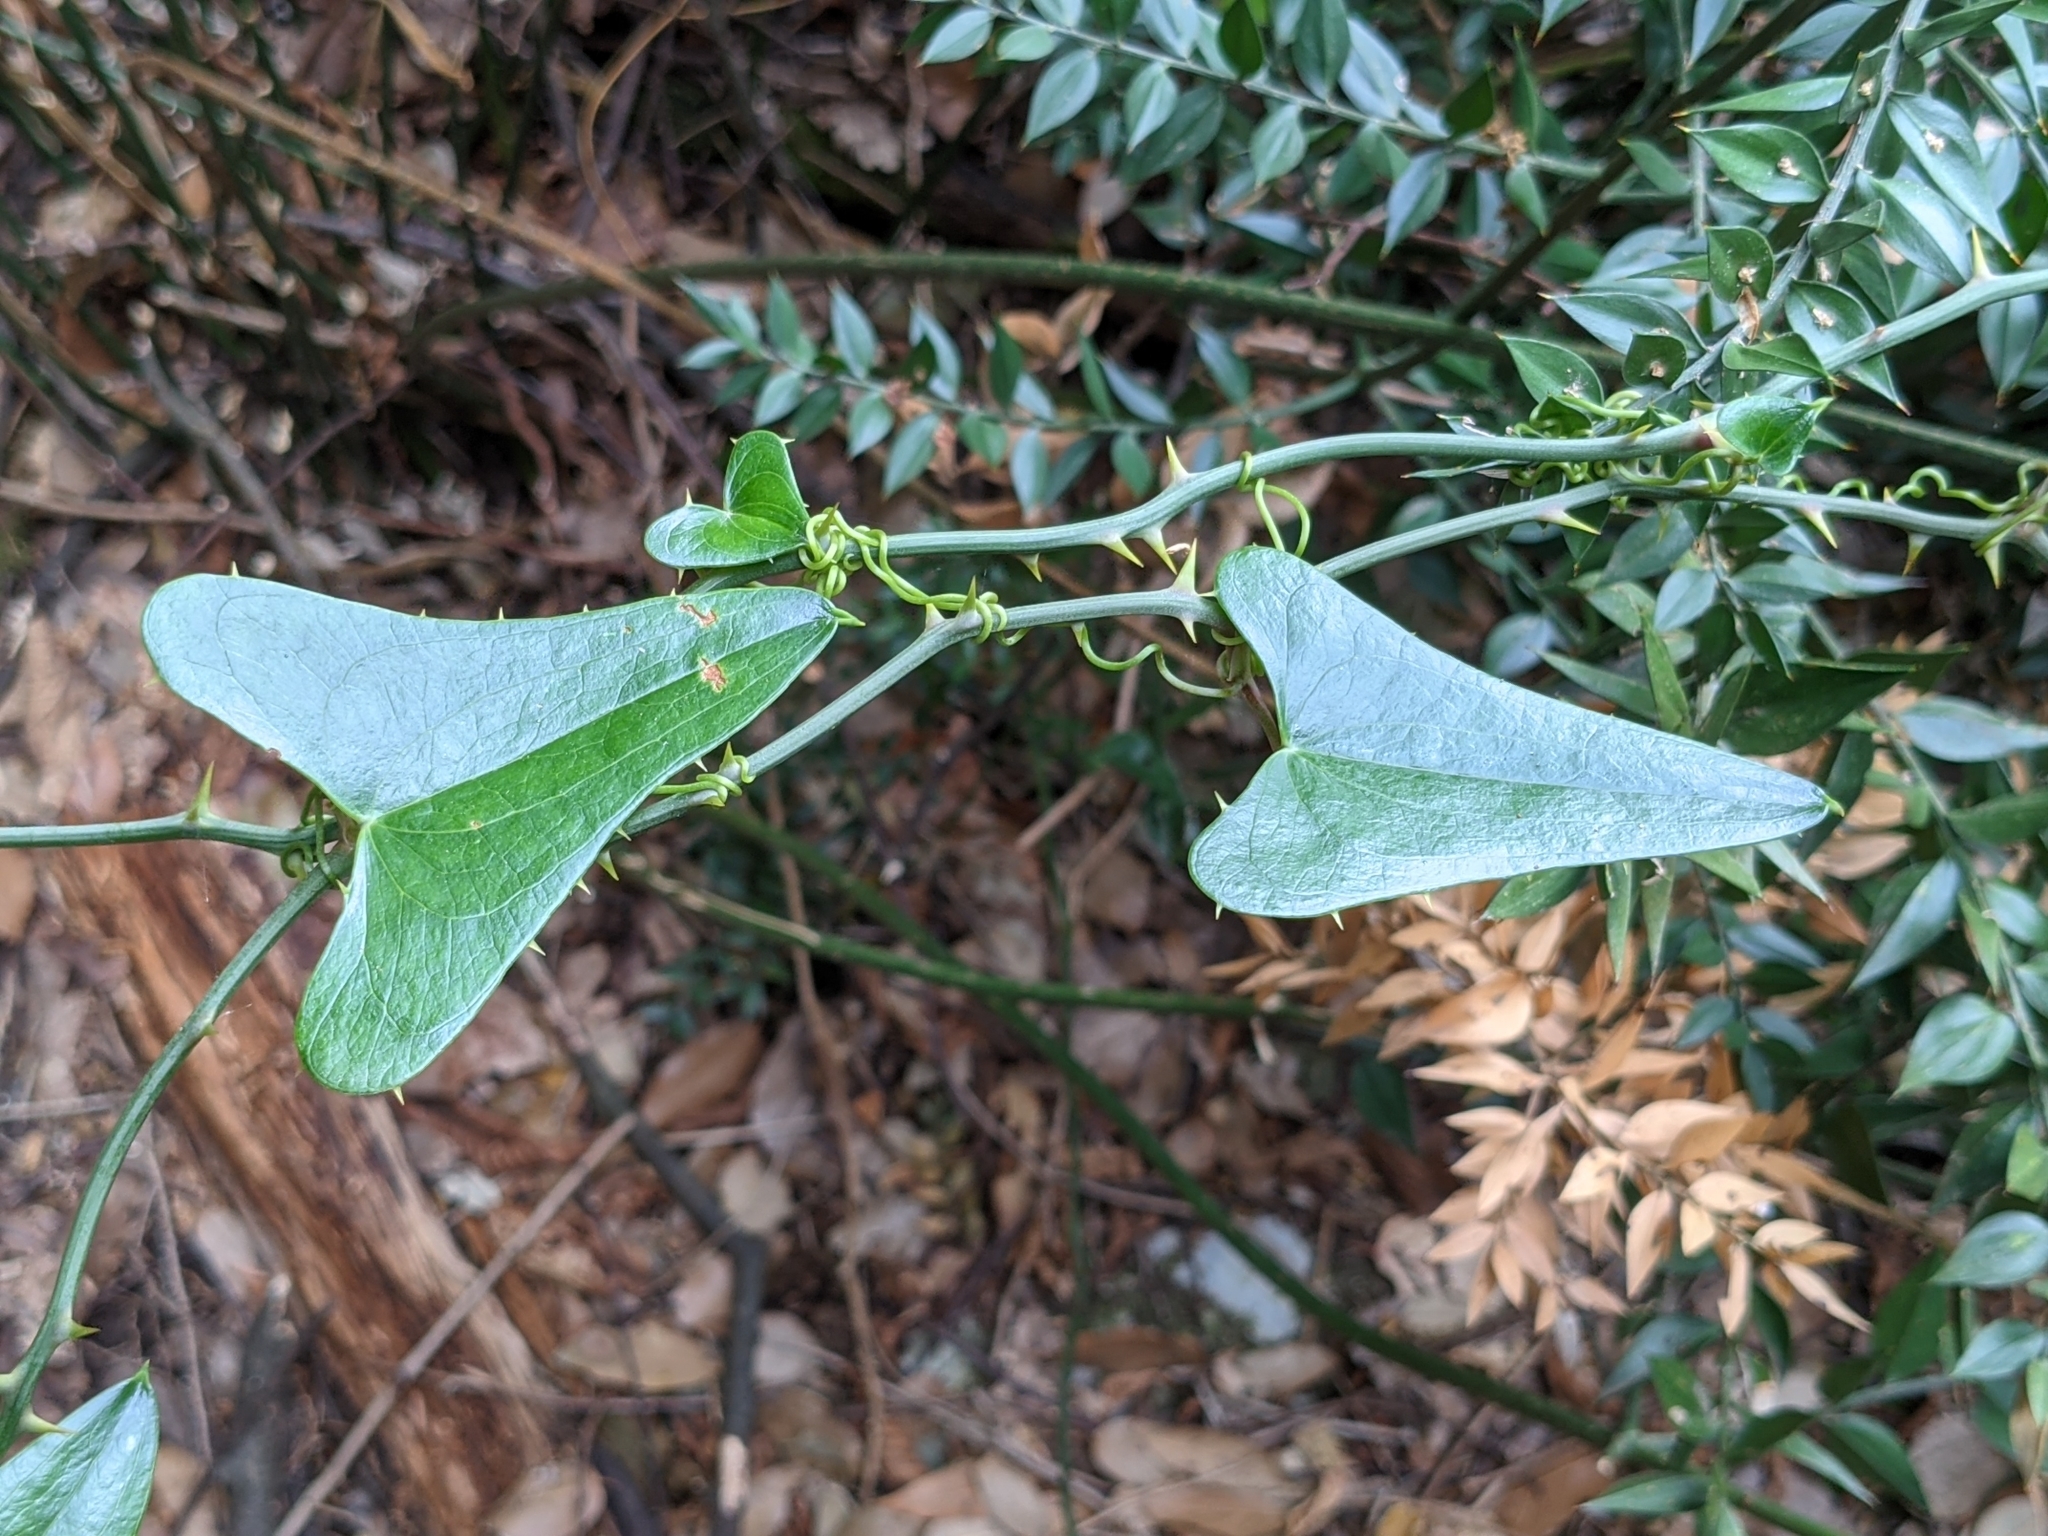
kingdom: Plantae
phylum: Tracheophyta
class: Liliopsida
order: Liliales
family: Smilacaceae
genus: Smilax
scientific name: Smilax aspera
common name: Common smilax
